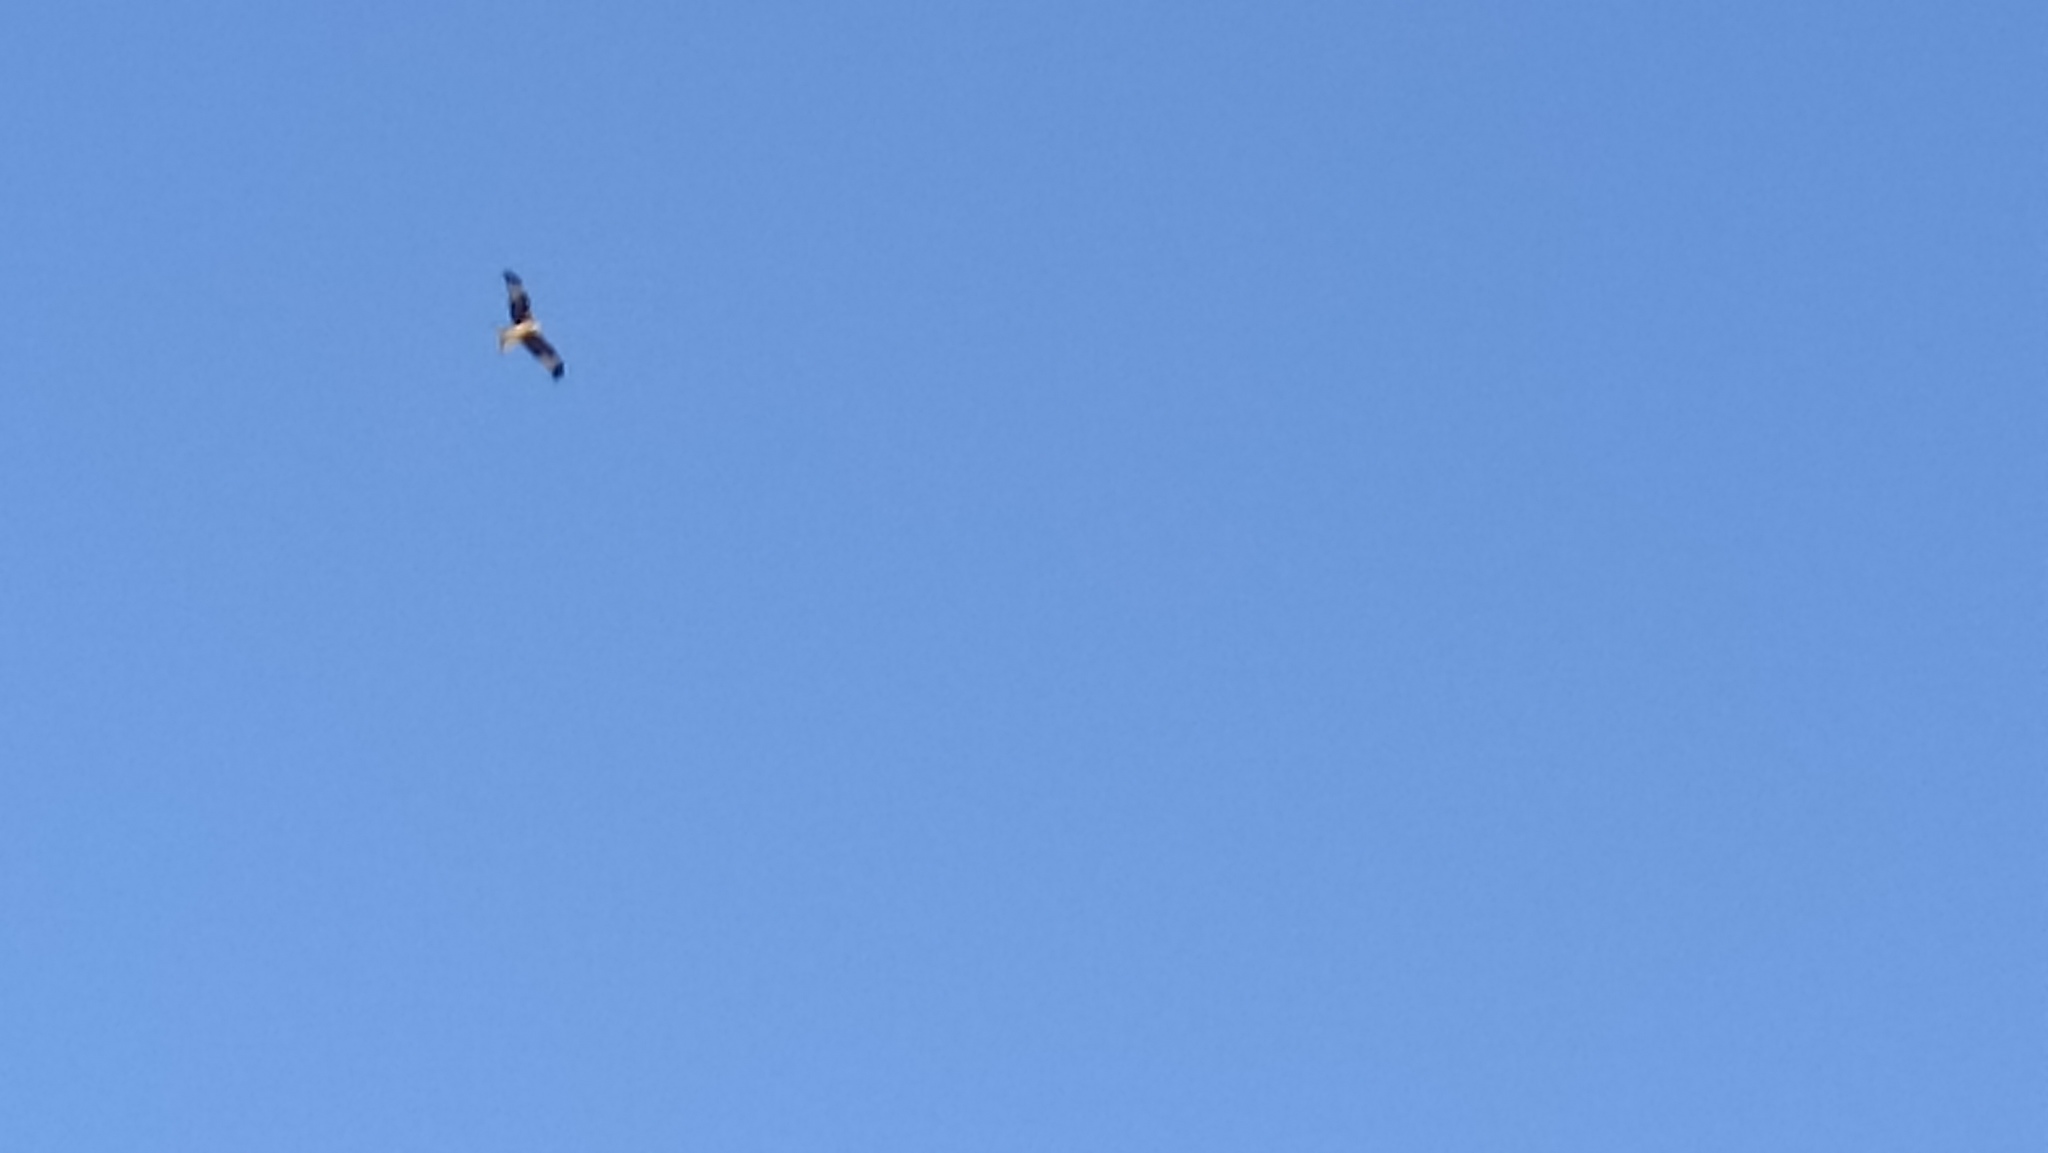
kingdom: Animalia
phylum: Chordata
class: Aves
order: Accipitriformes
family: Accipitridae
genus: Milvus
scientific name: Milvus milvus
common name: Red kite
